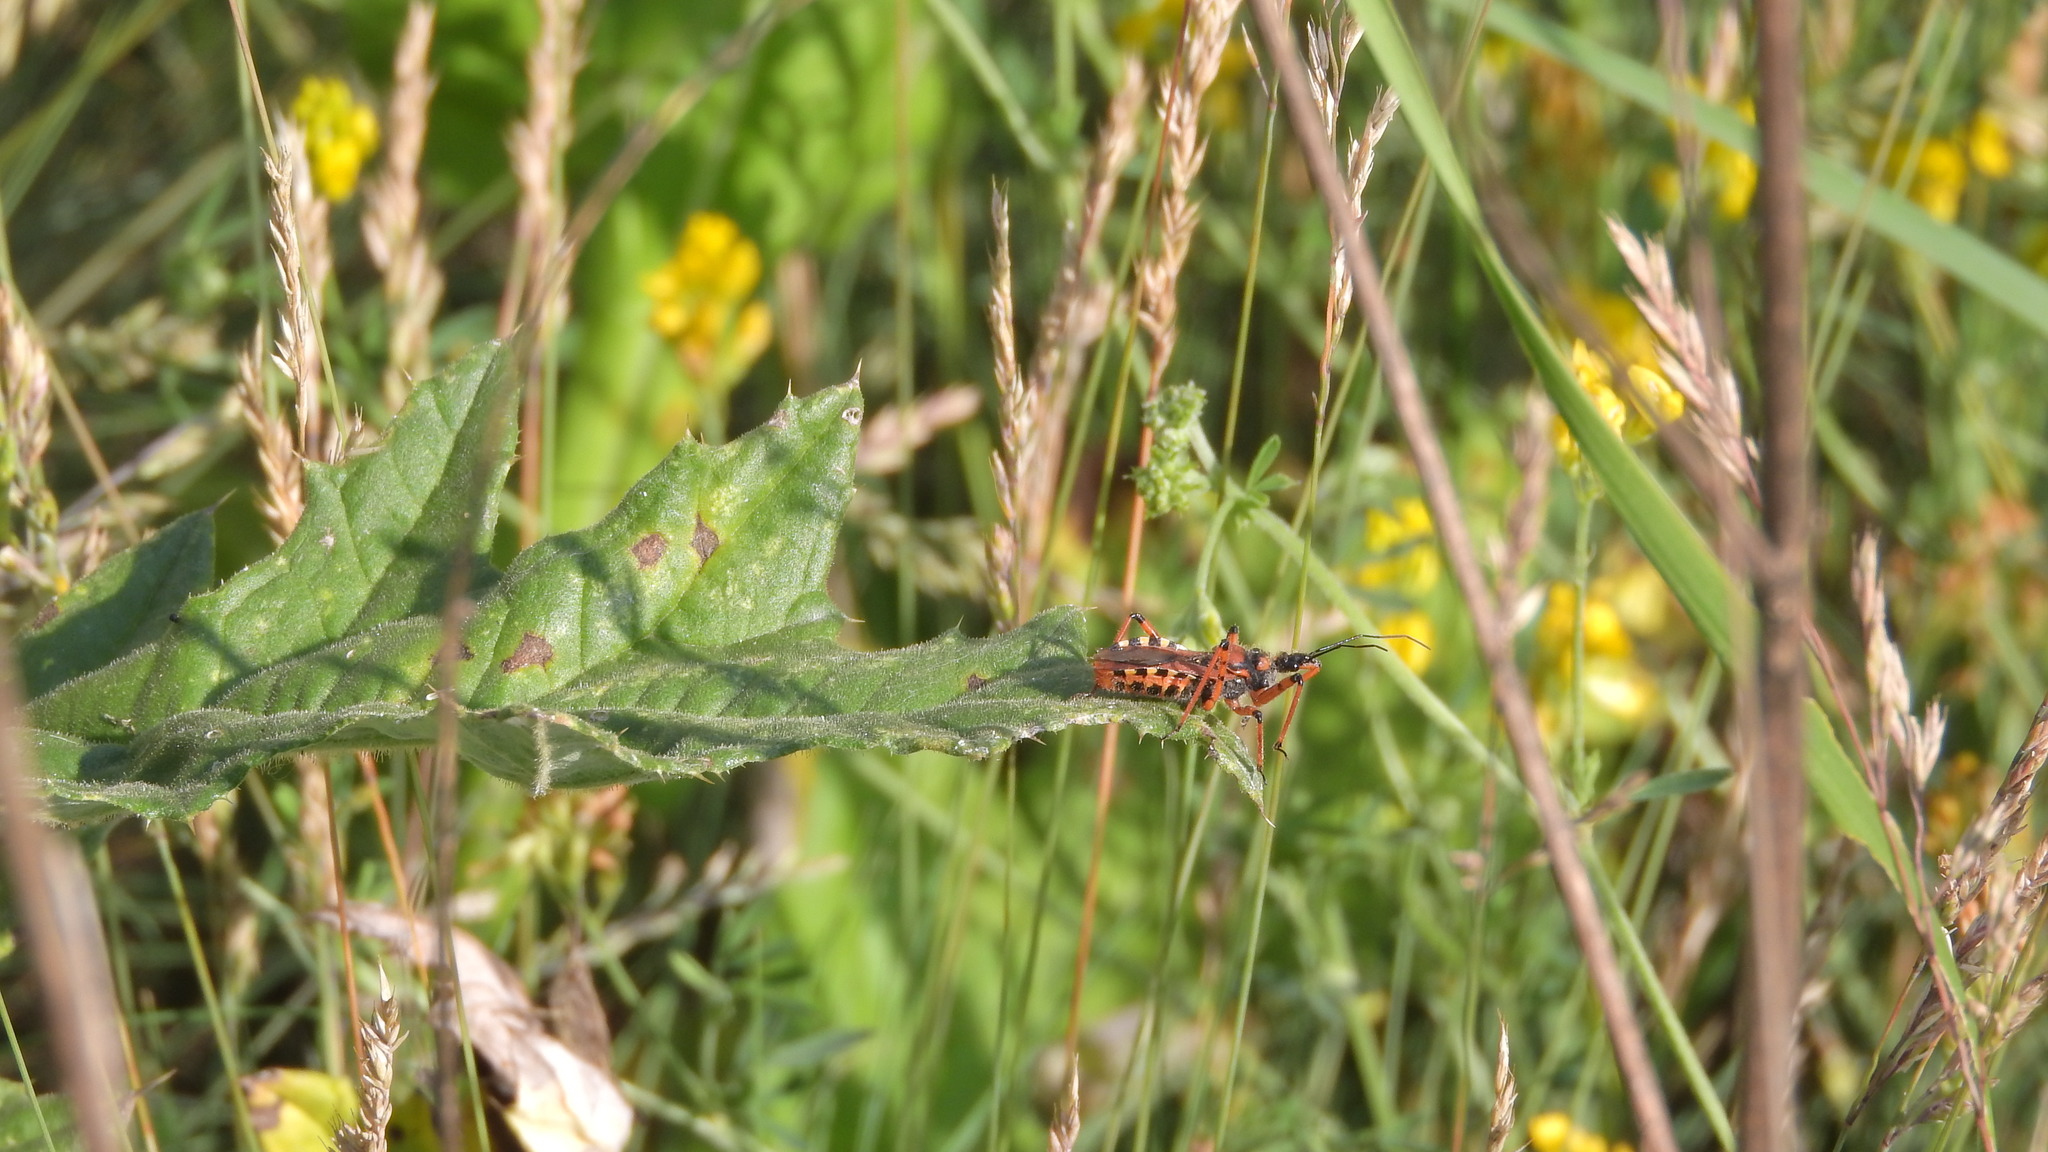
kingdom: Animalia
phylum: Arthropoda
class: Insecta
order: Hemiptera
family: Reduviidae
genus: Rhynocoris
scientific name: Rhynocoris iracundus
